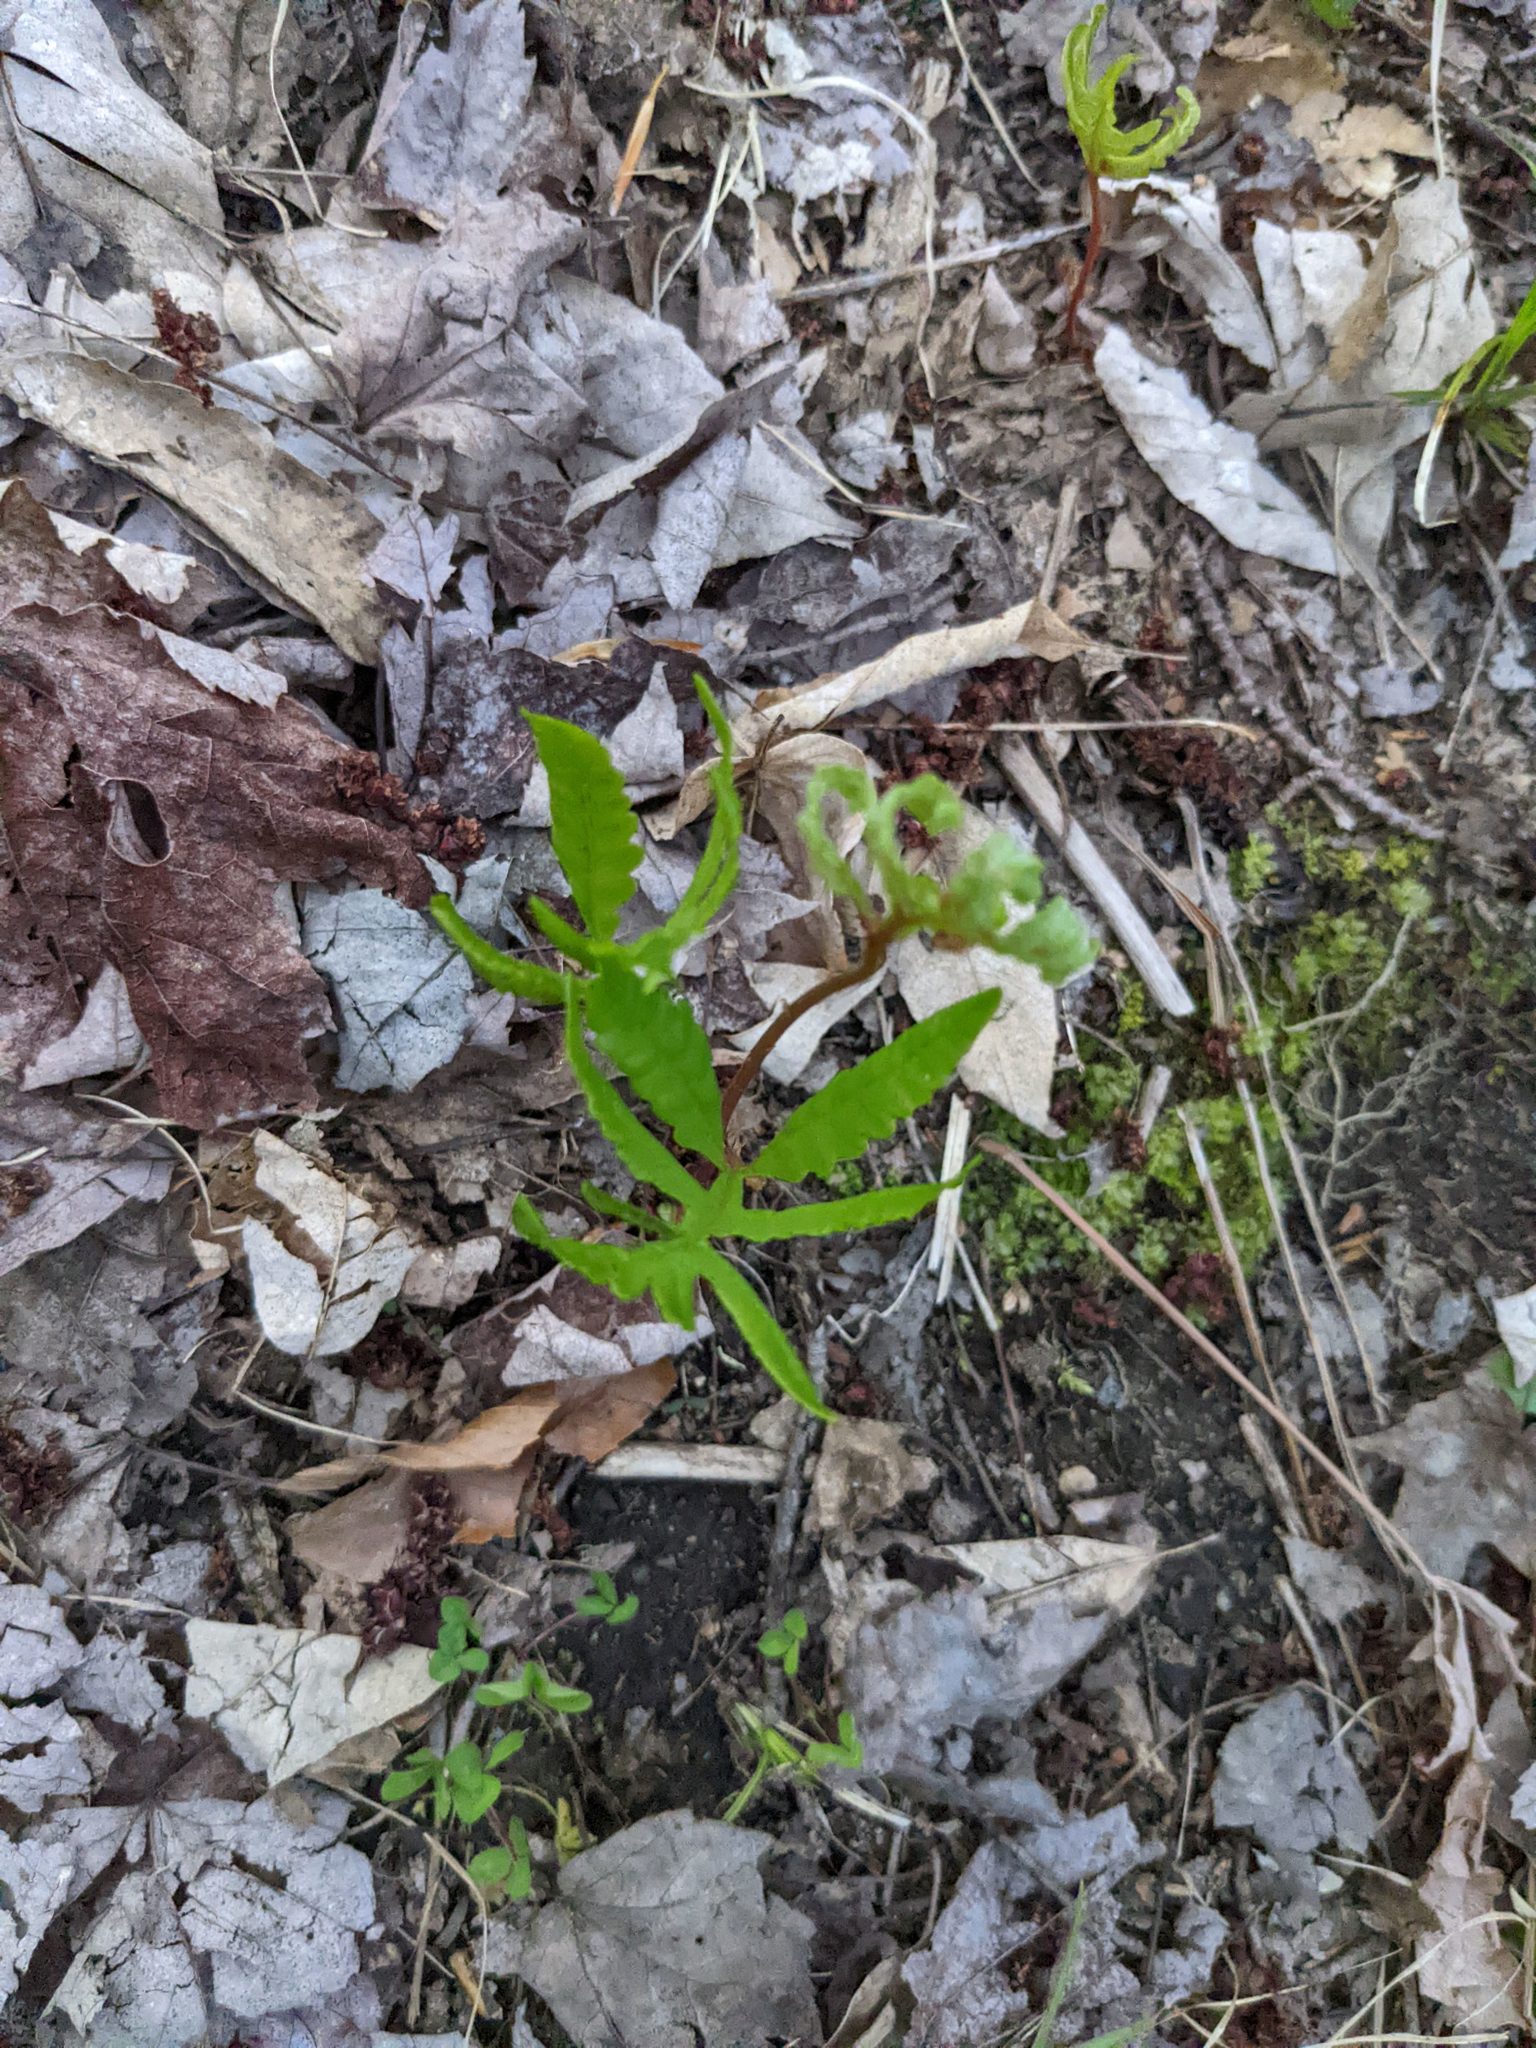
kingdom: Plantae
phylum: Tracheophyta
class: Polypodiopsida
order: Polypodiales
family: Onocleaceae
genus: Onoclea
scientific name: Onoclea sensibilis
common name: Sensitive fern
